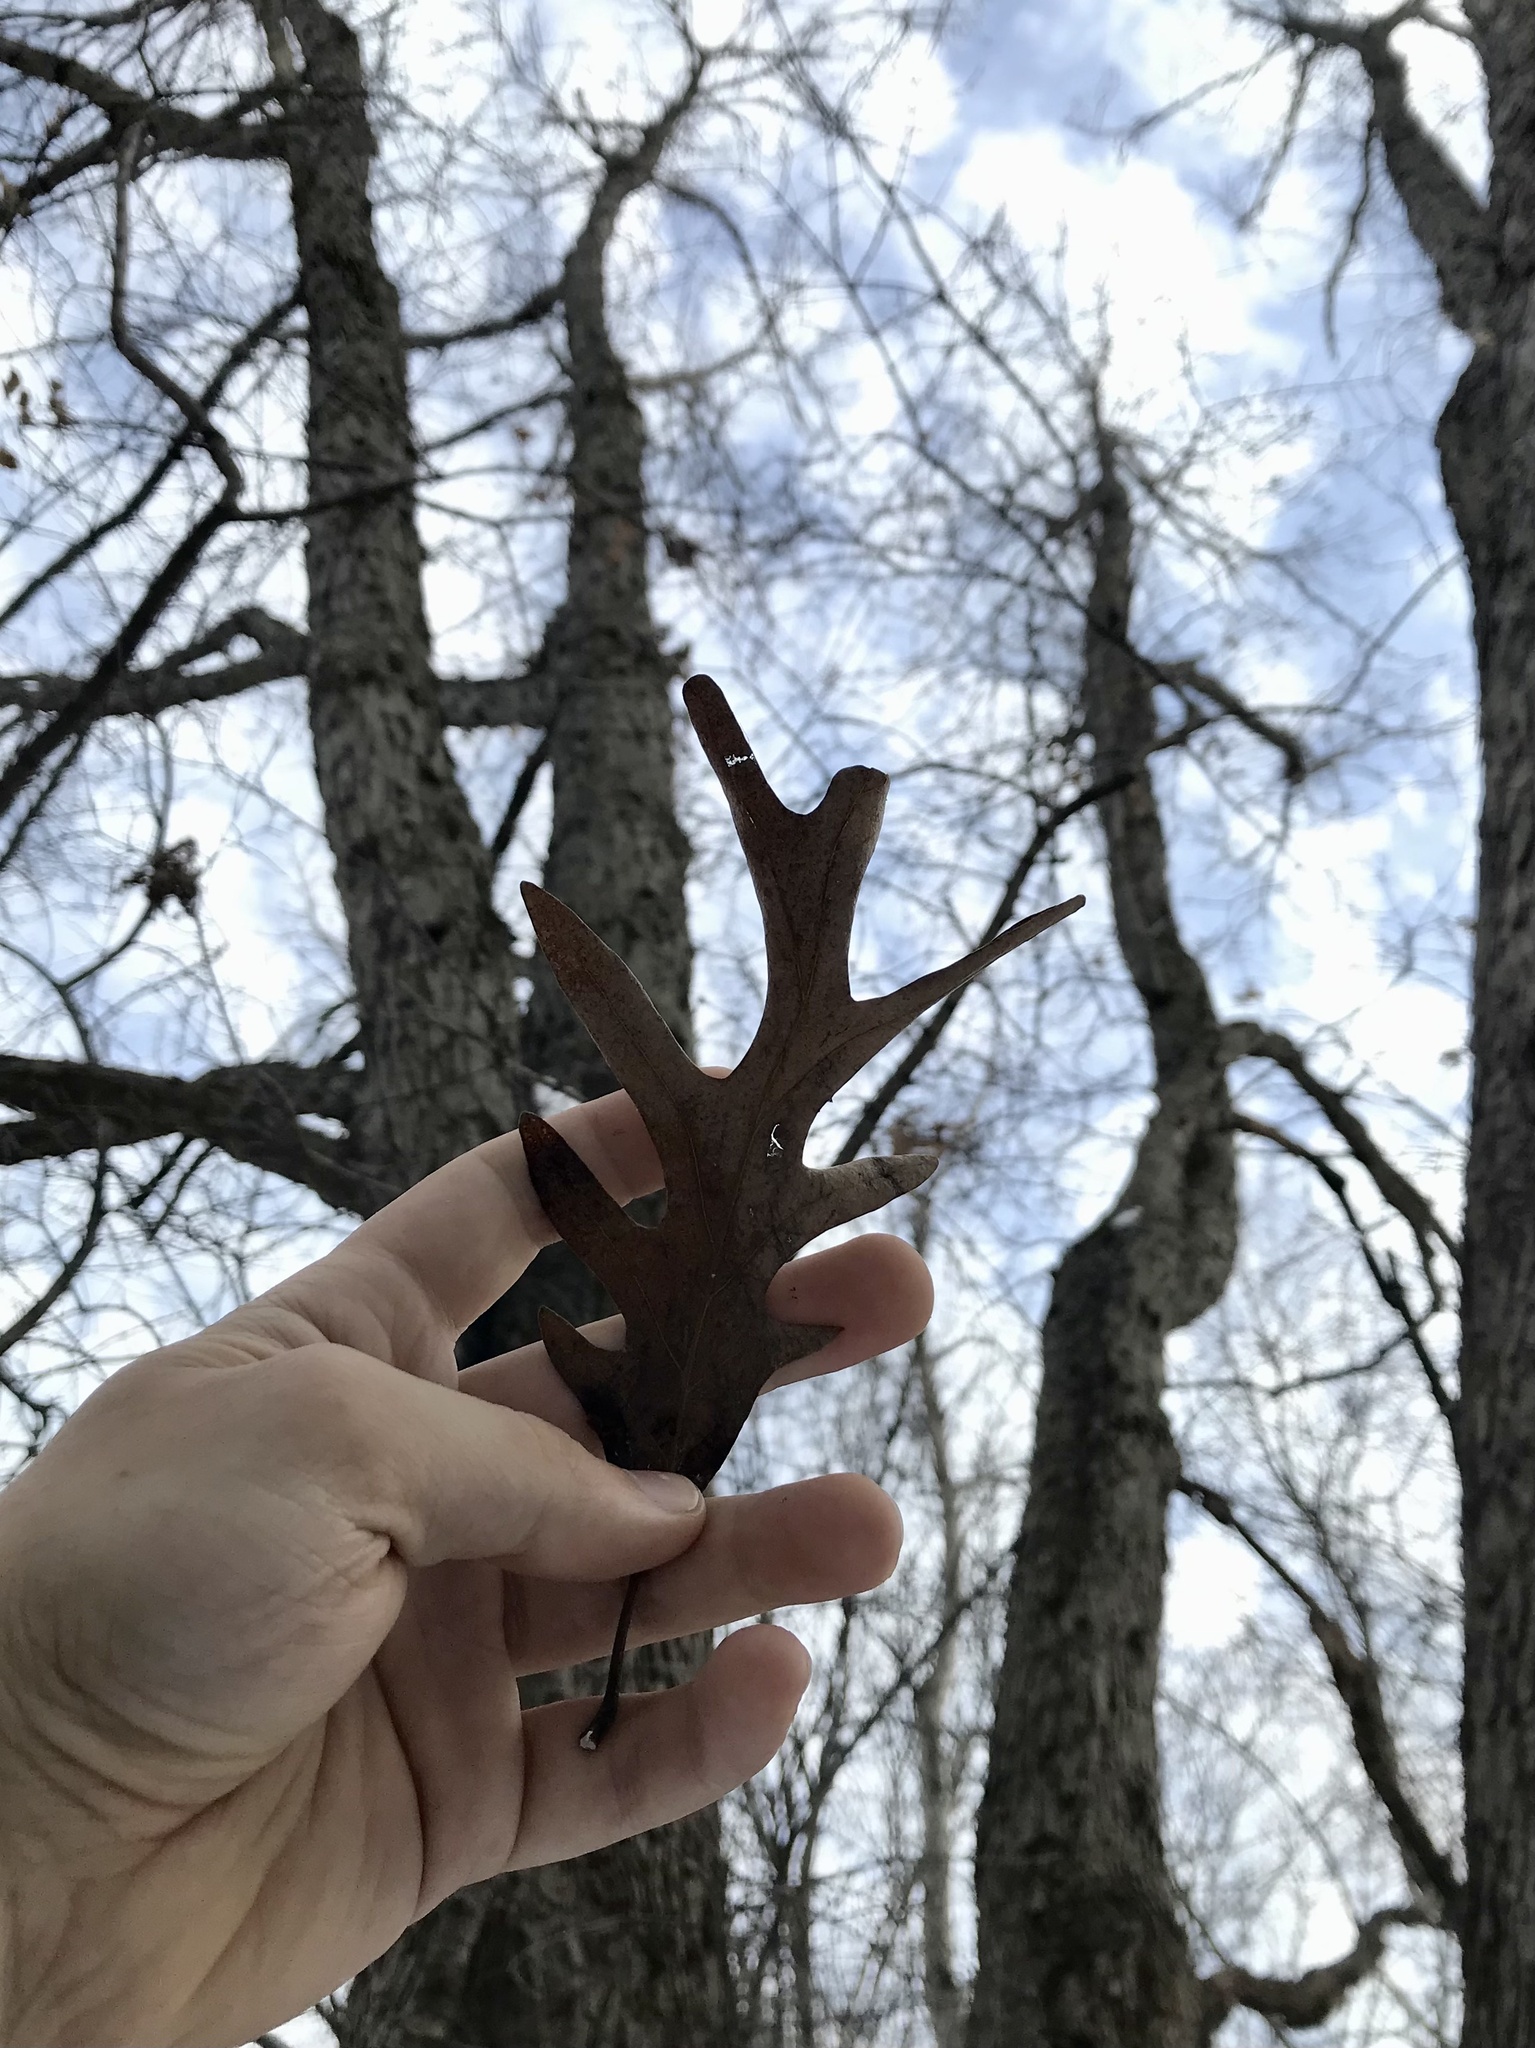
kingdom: Plantae
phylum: Tracheophyta
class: Magnoliopsida
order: Fagales
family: Fagaceae
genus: Quercus
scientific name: Quercus alba
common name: White oak
